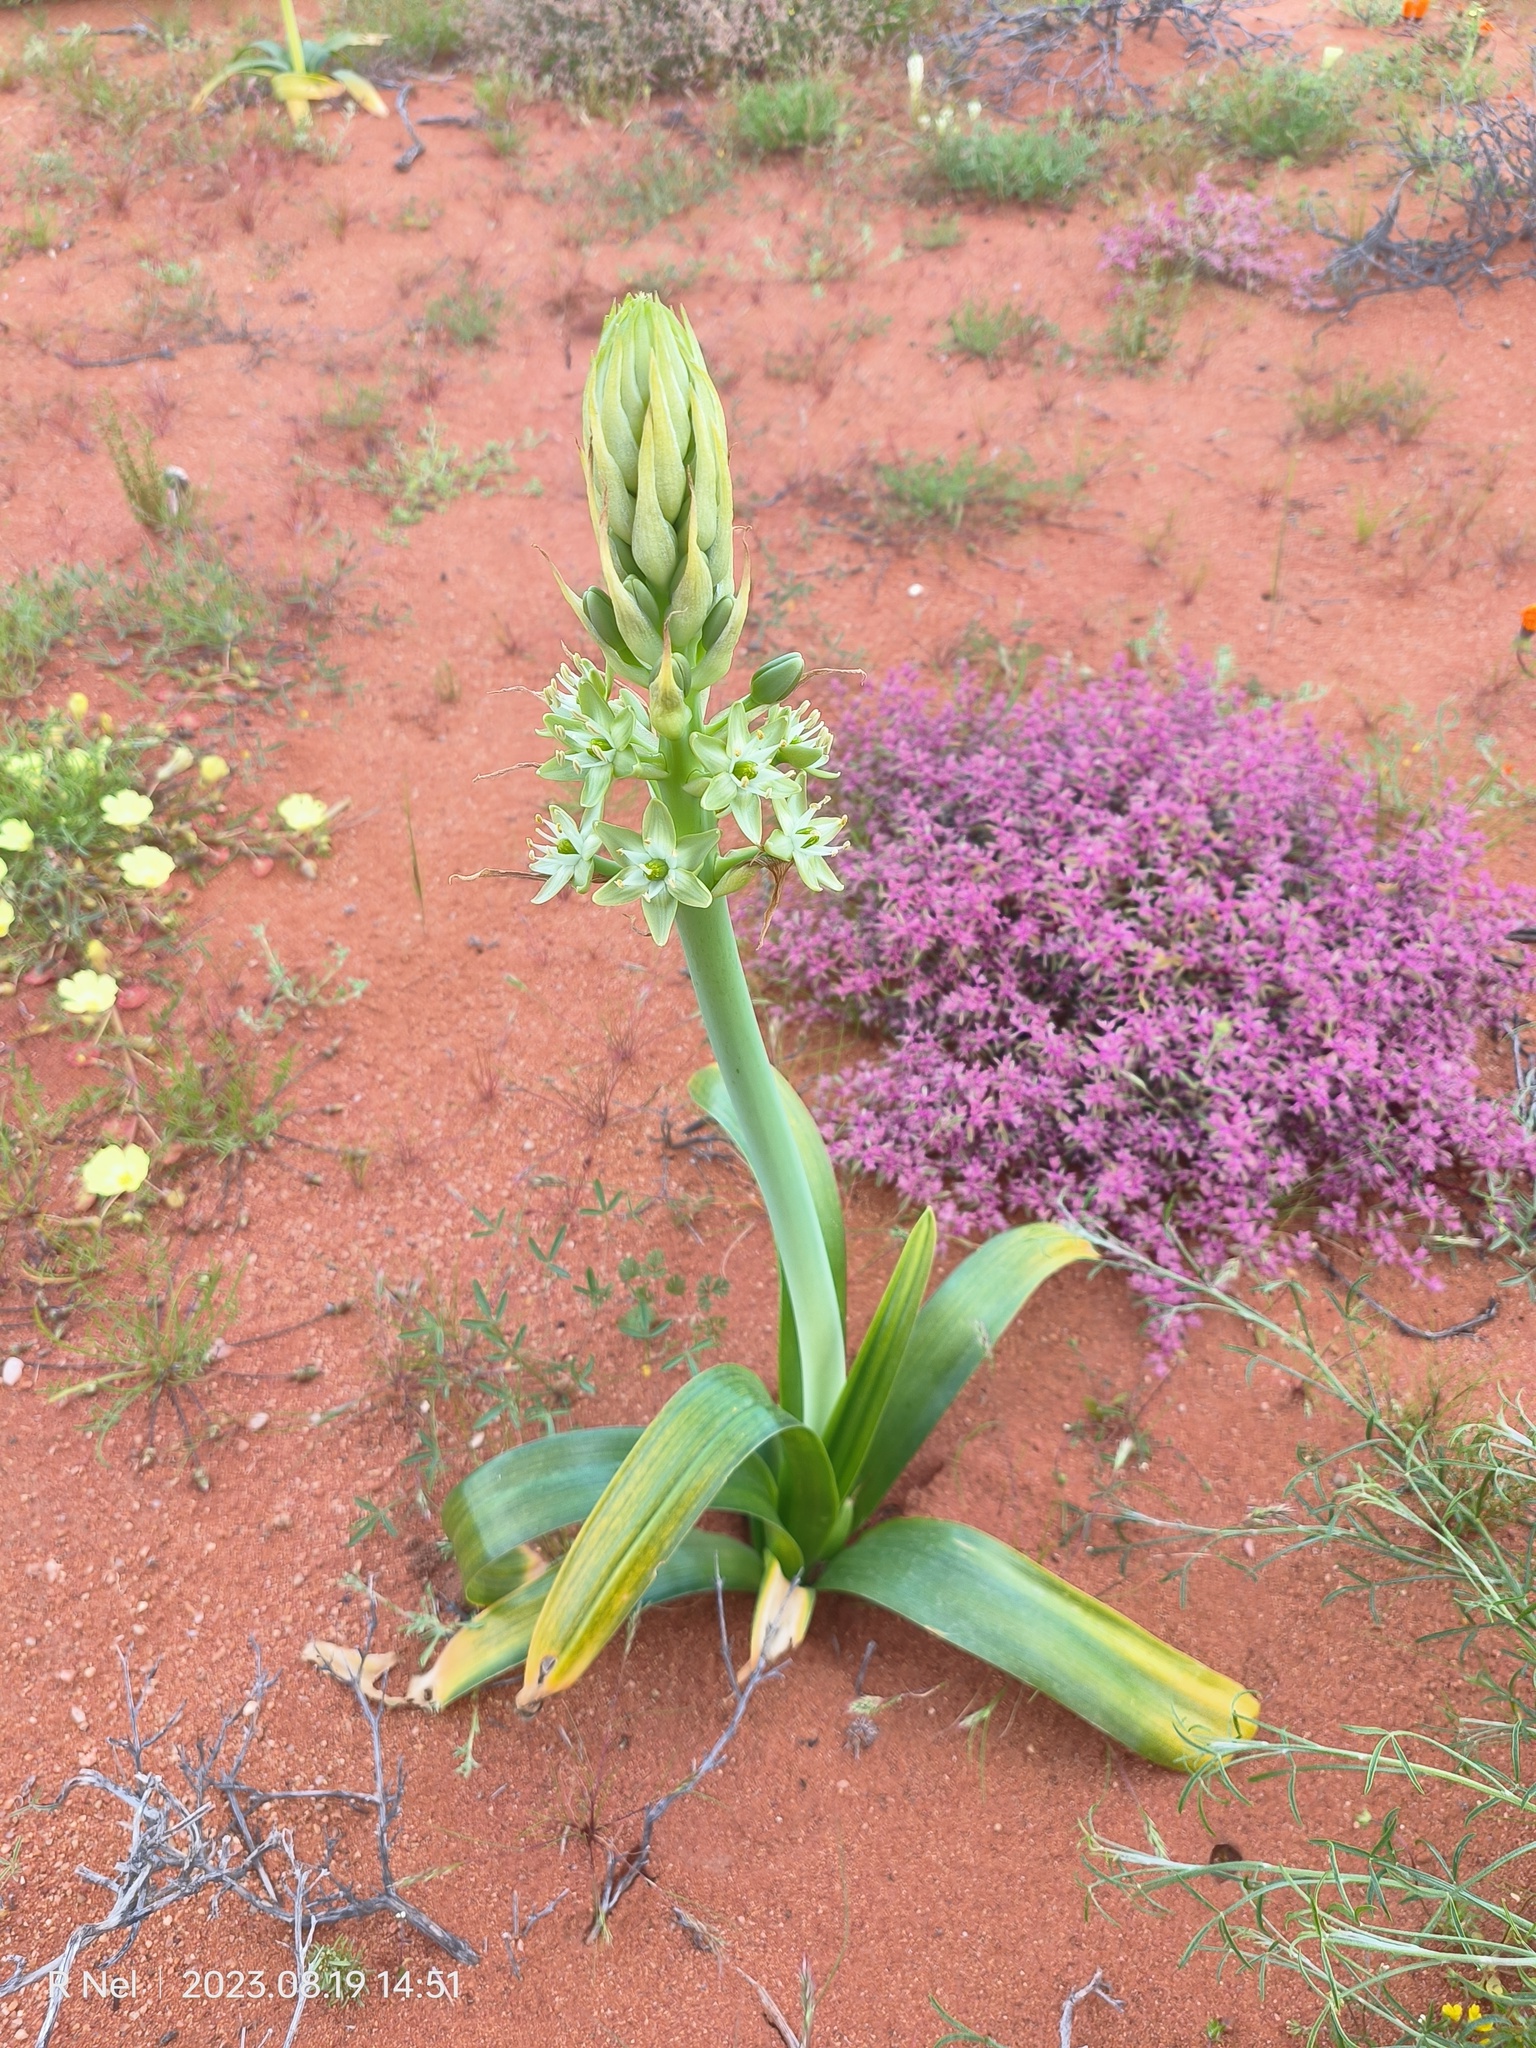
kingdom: Plantae
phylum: Tracheophyta
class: Liliopsida
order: Asparagales
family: Asparagaceae
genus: Ornithogalum
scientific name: Ornithogalum xanthochlorum
